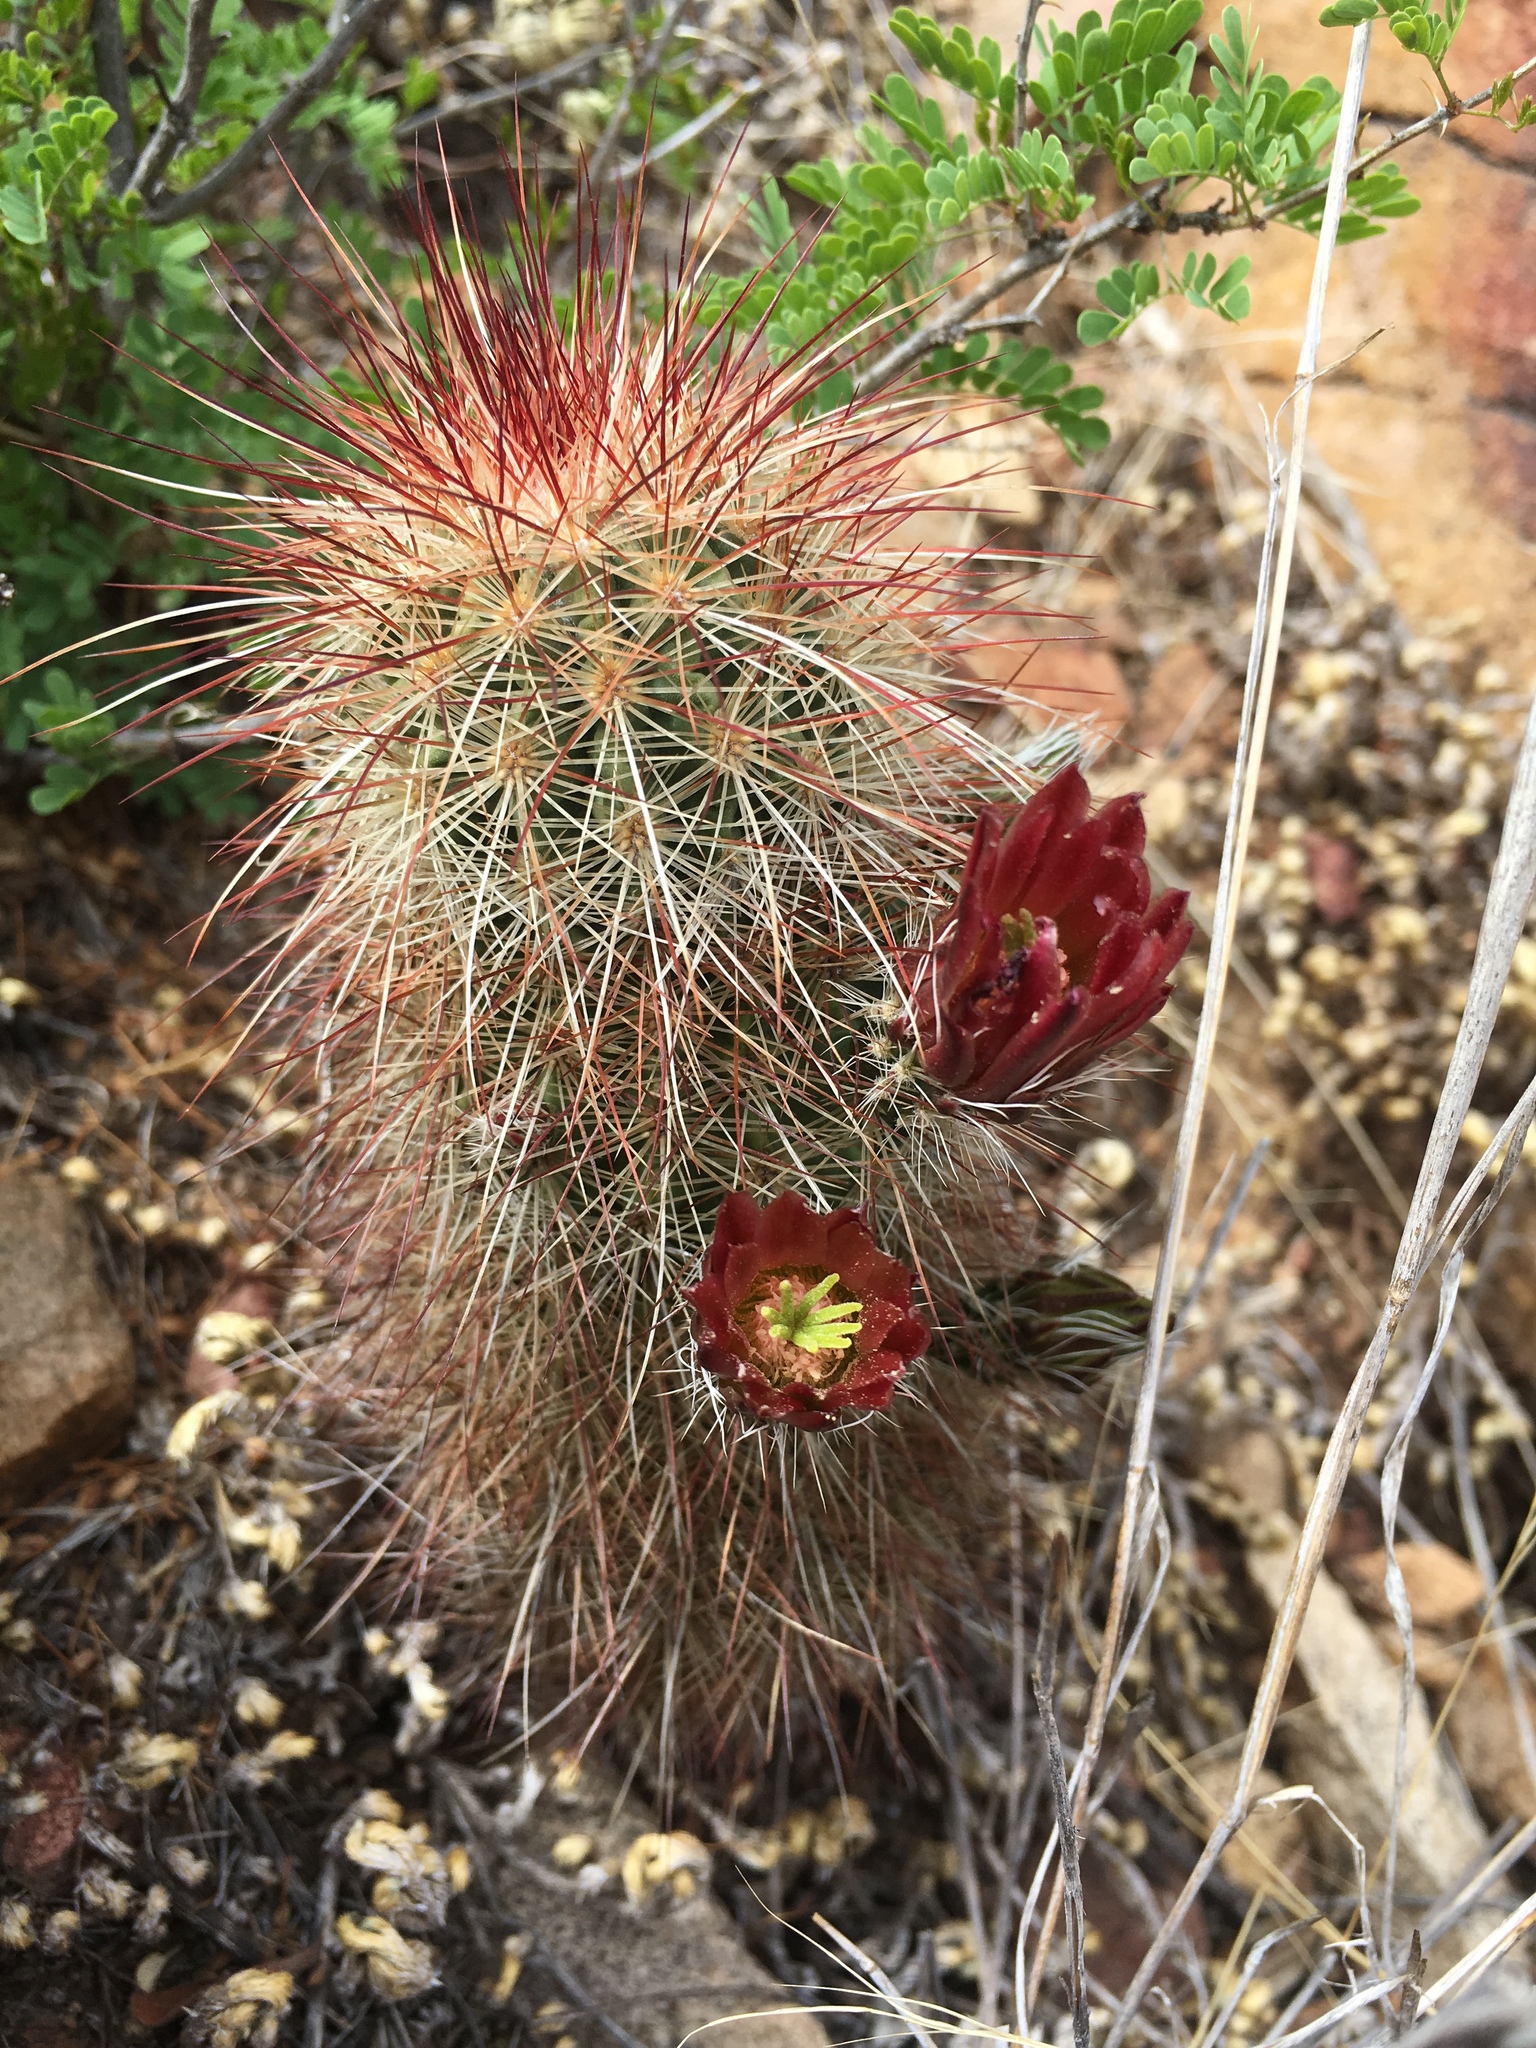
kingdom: Plantae
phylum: Tracheophyta
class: Magnoliopsida
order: Caryophyllales
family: Cactaceae
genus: Echinocereus
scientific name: Echinocereus russanthus
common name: Brownspine hedgehog cactus
